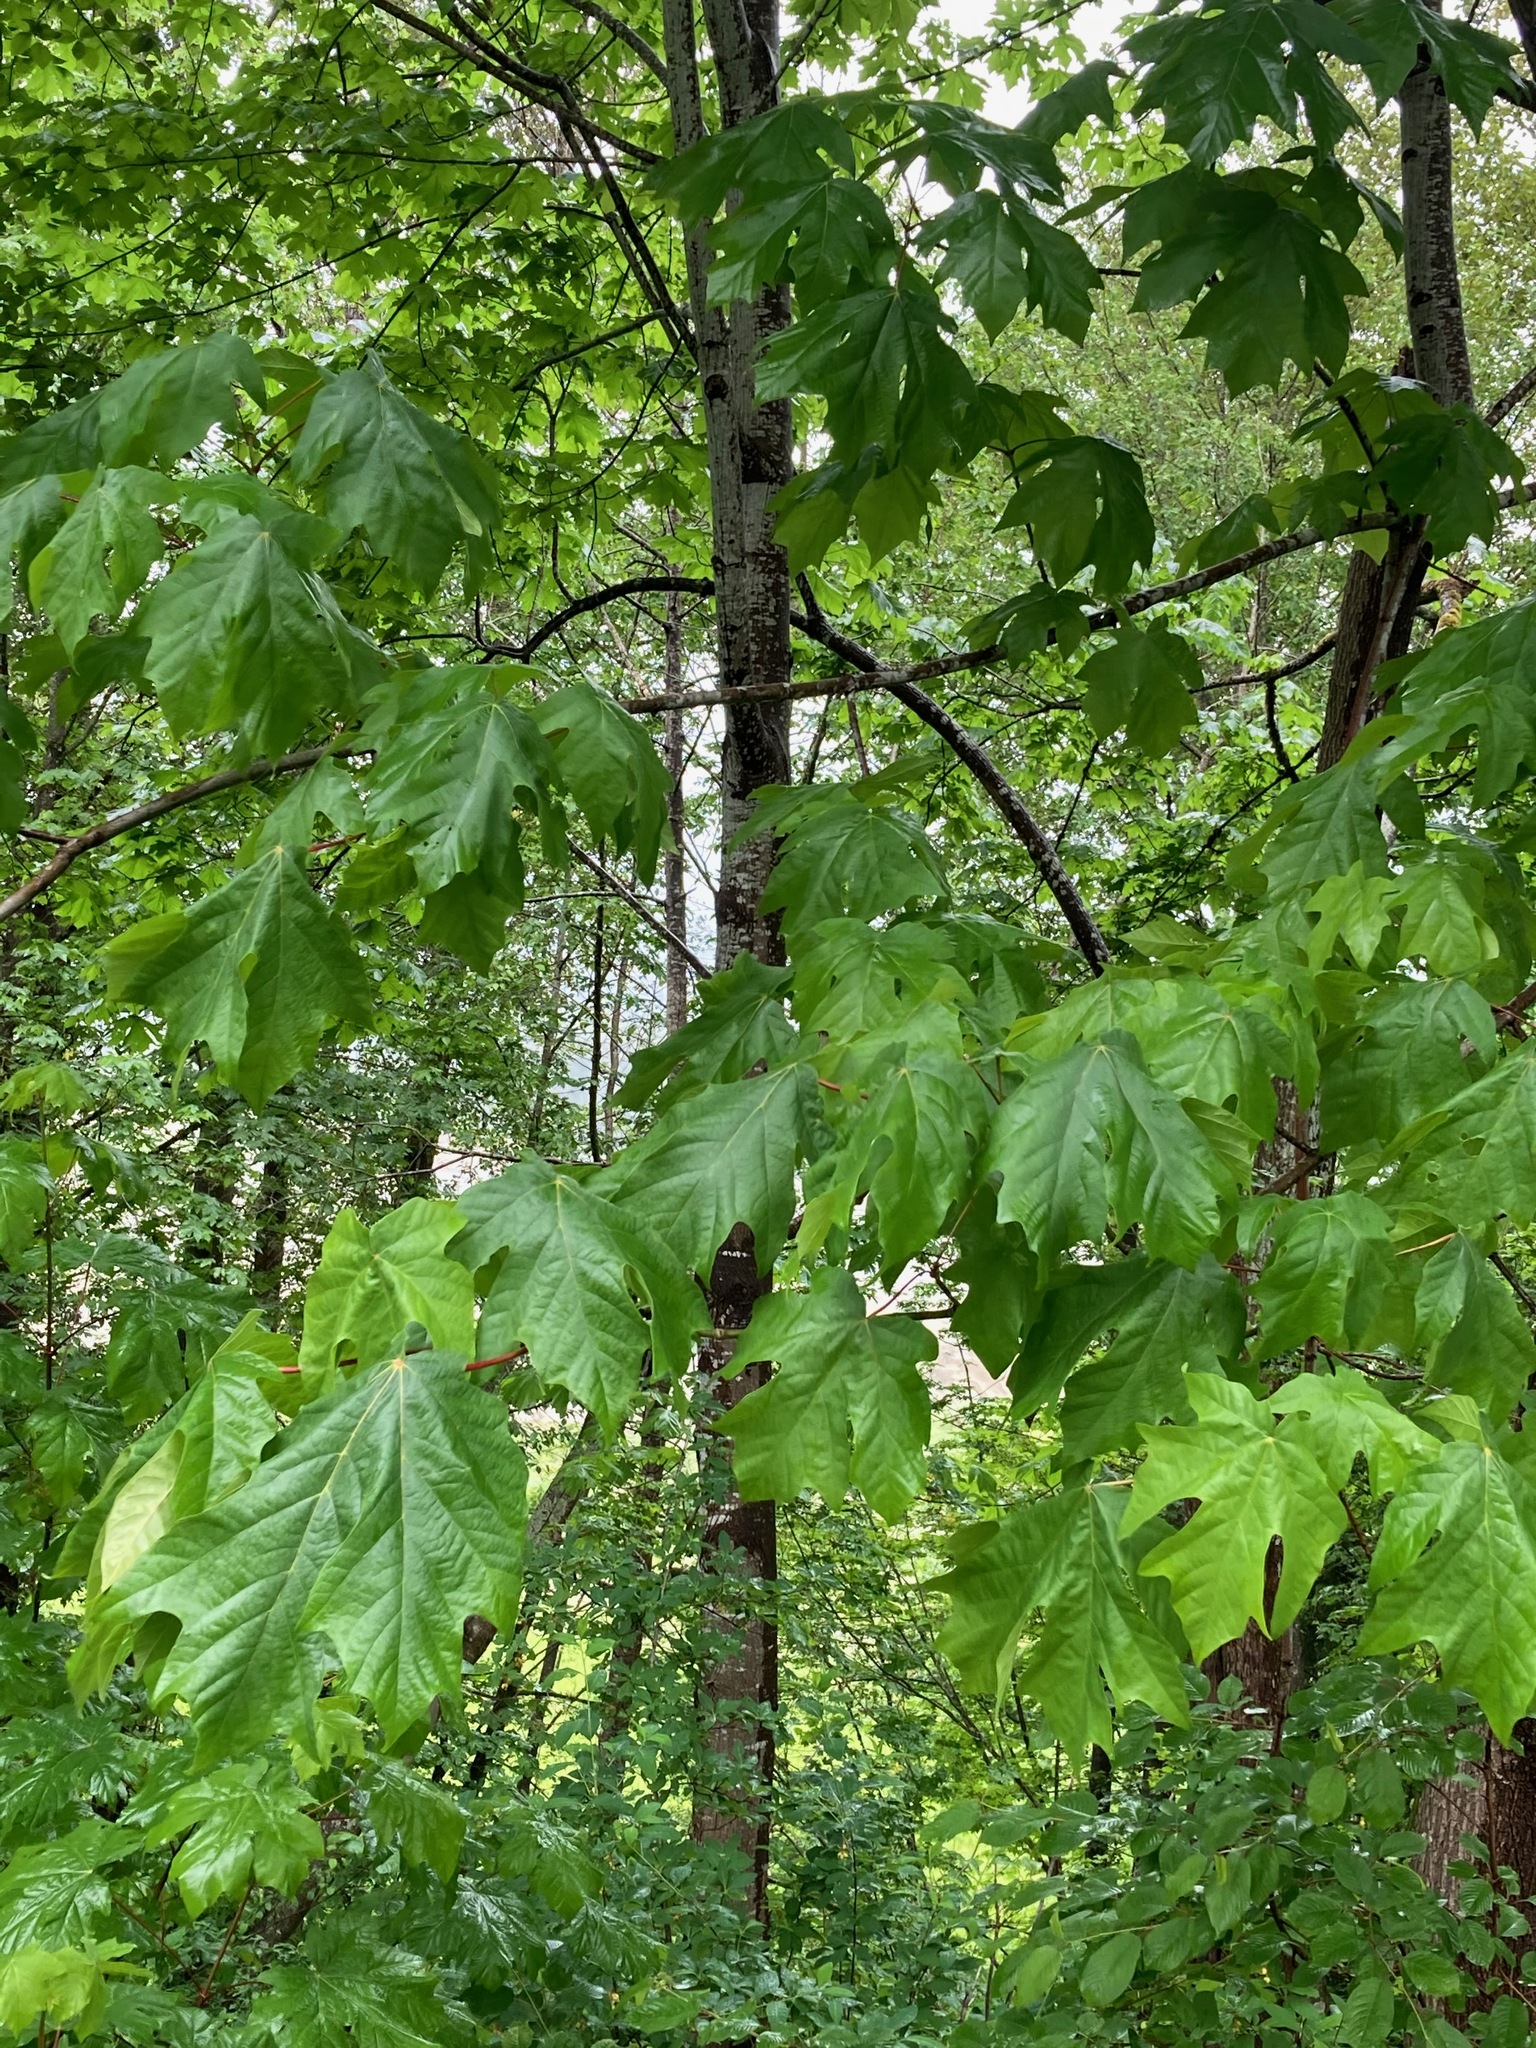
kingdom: Plantae
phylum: Tracheophyta
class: Magnoliopsida
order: Sapindales
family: Sapindaceae
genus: Acer
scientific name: Acer macrophyllum
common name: Oregon maple
